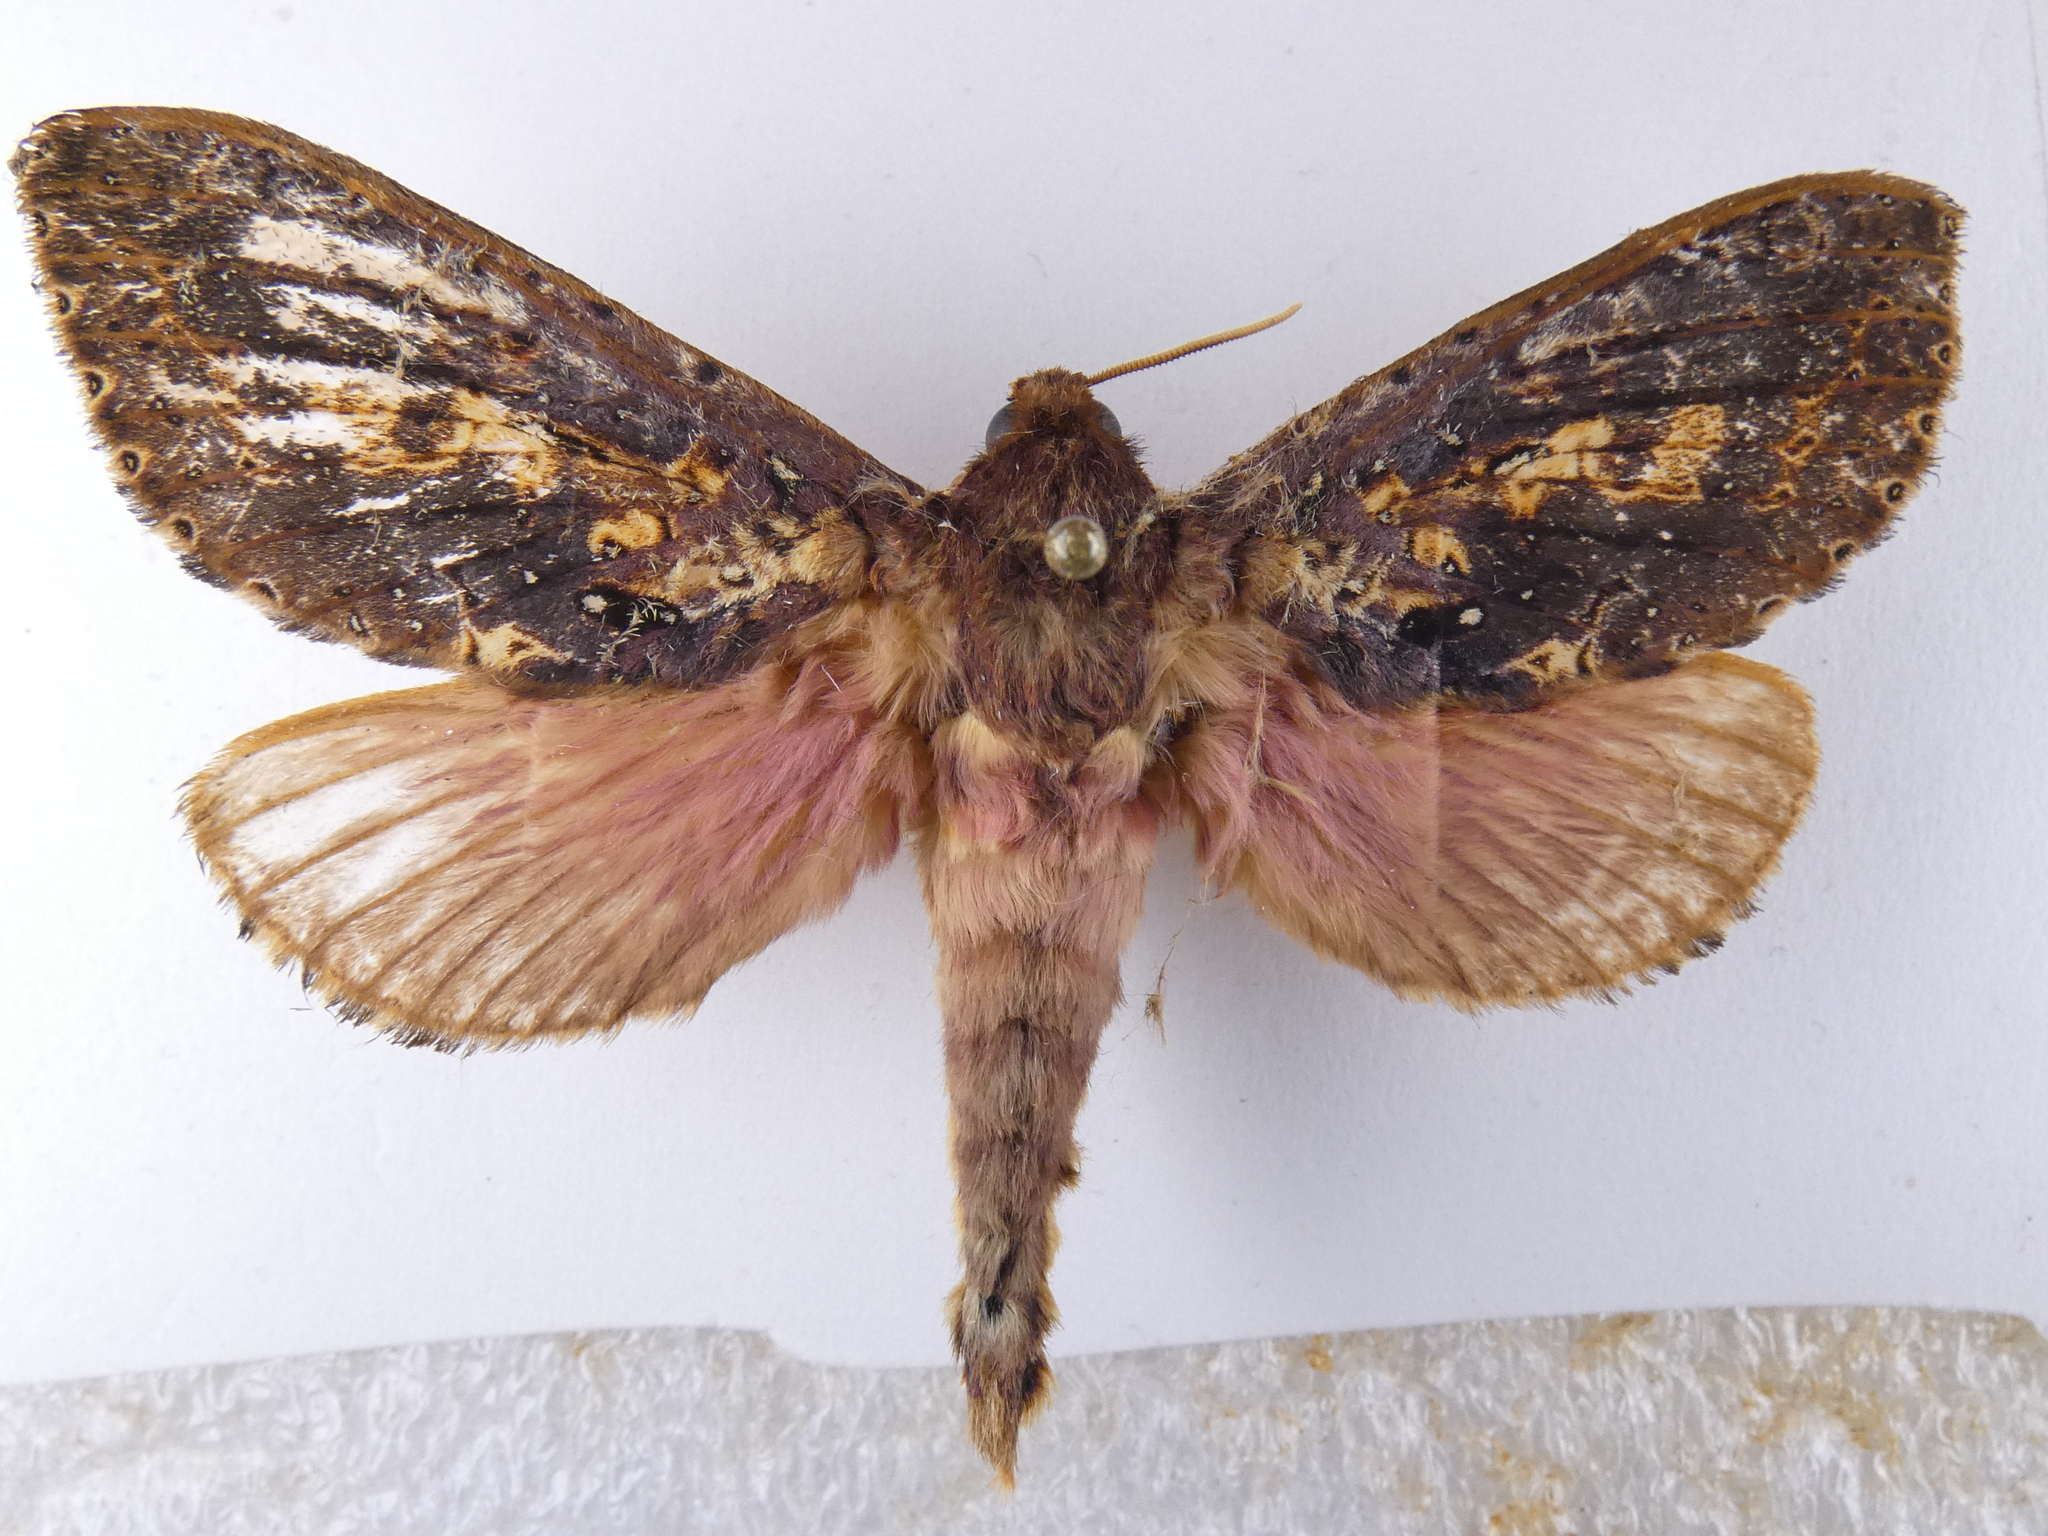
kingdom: Animalia
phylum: Arthropoda
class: Insecta
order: Lepidoptera
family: Hepialidae
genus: Dumbletonius
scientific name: Dumbletonius unimaculata
